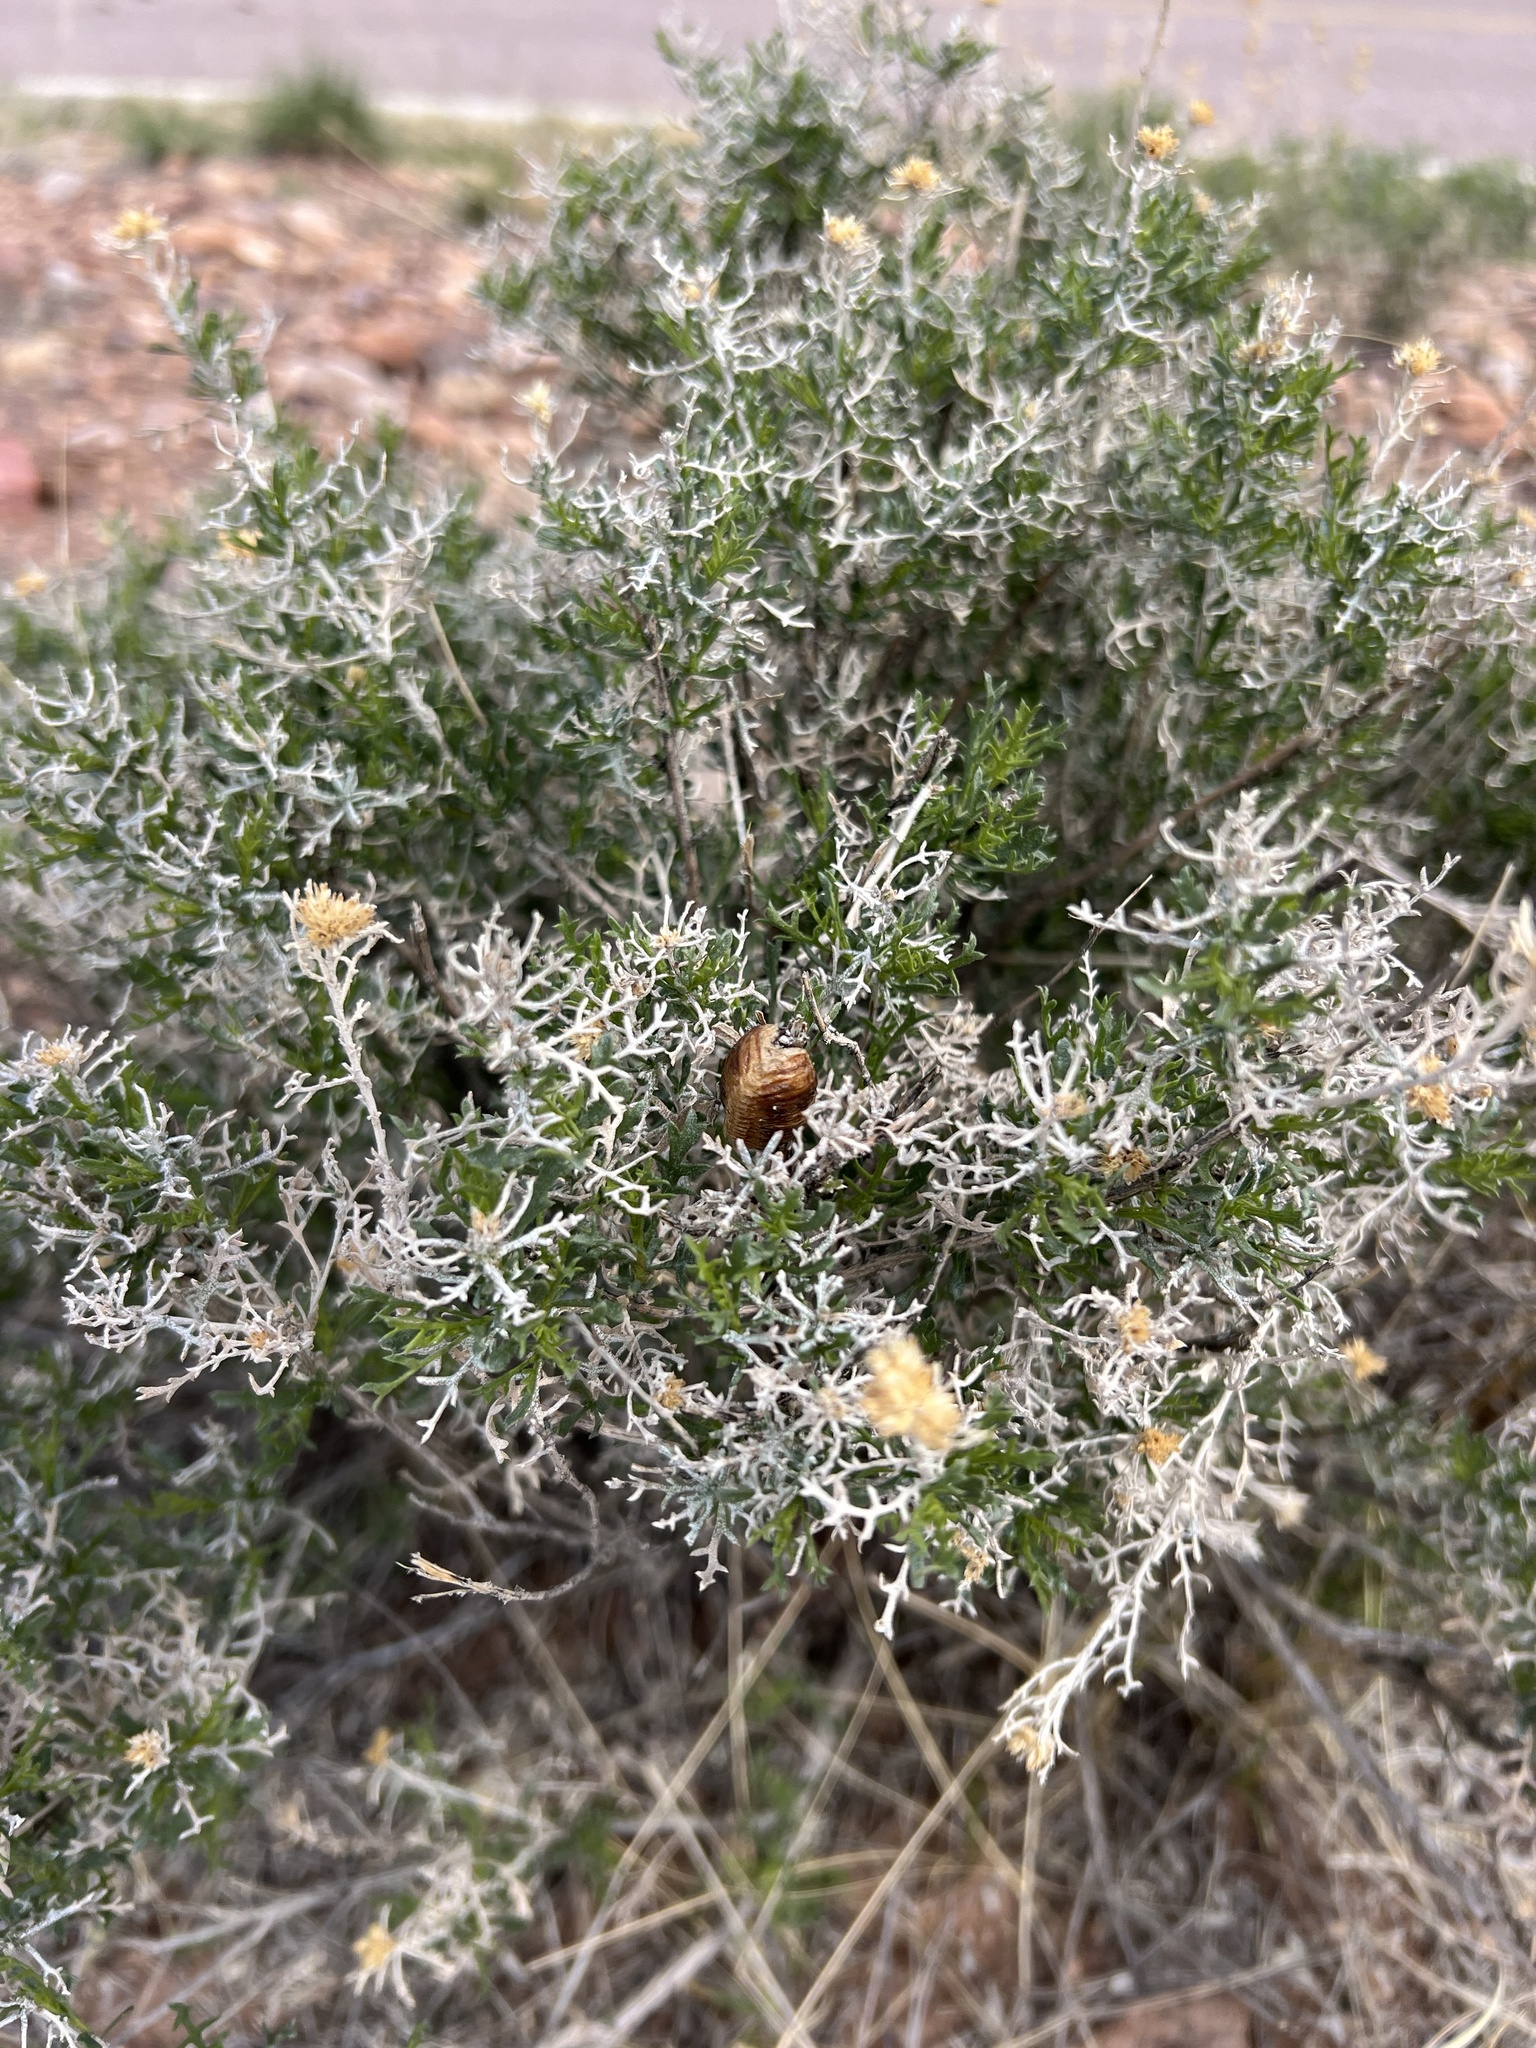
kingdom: Plantae
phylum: Tracheophyta
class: Magnoliopsida
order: Asterales
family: Asteraceae
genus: Isocoma
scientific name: Isocoma tenuisecta
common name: Burroweed
